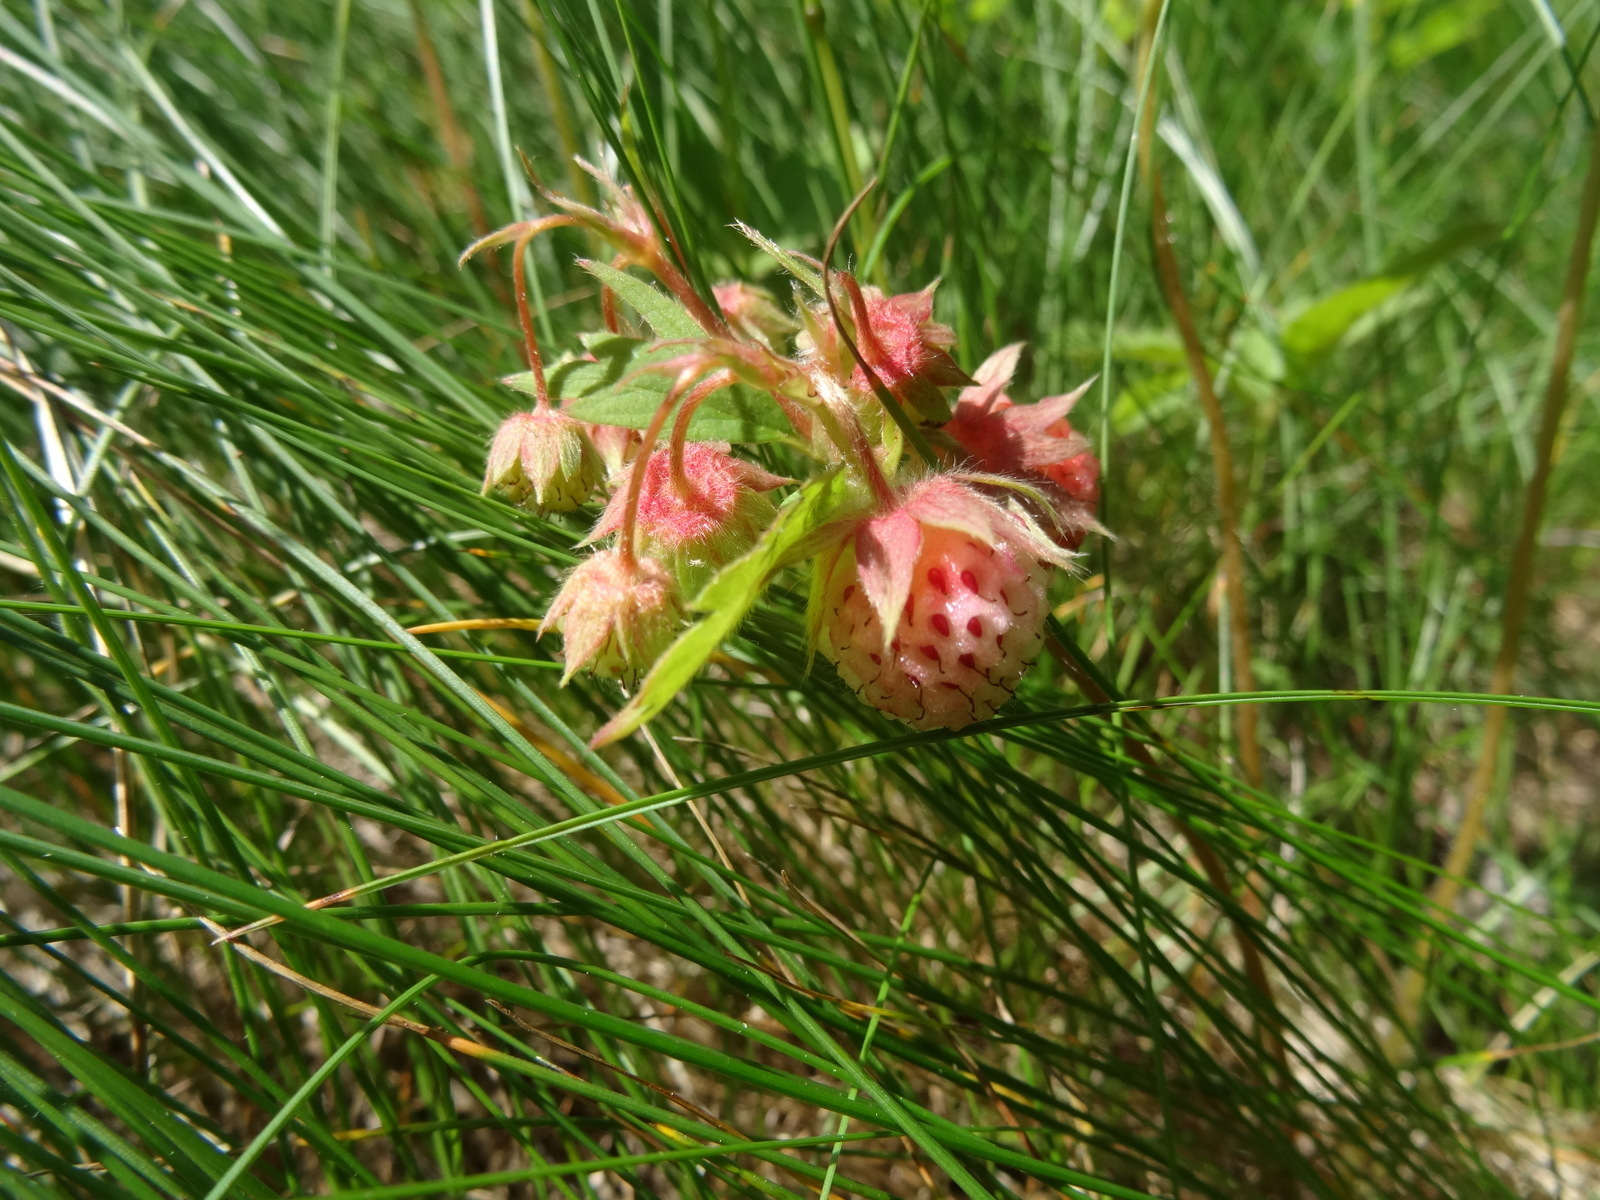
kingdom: Plantae
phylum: Tracheophyta
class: Magnoliopsida
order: Rosales
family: Rosaceae
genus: Fragaria
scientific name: Fragaria virginiana
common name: Thickleaved wild strawberry
